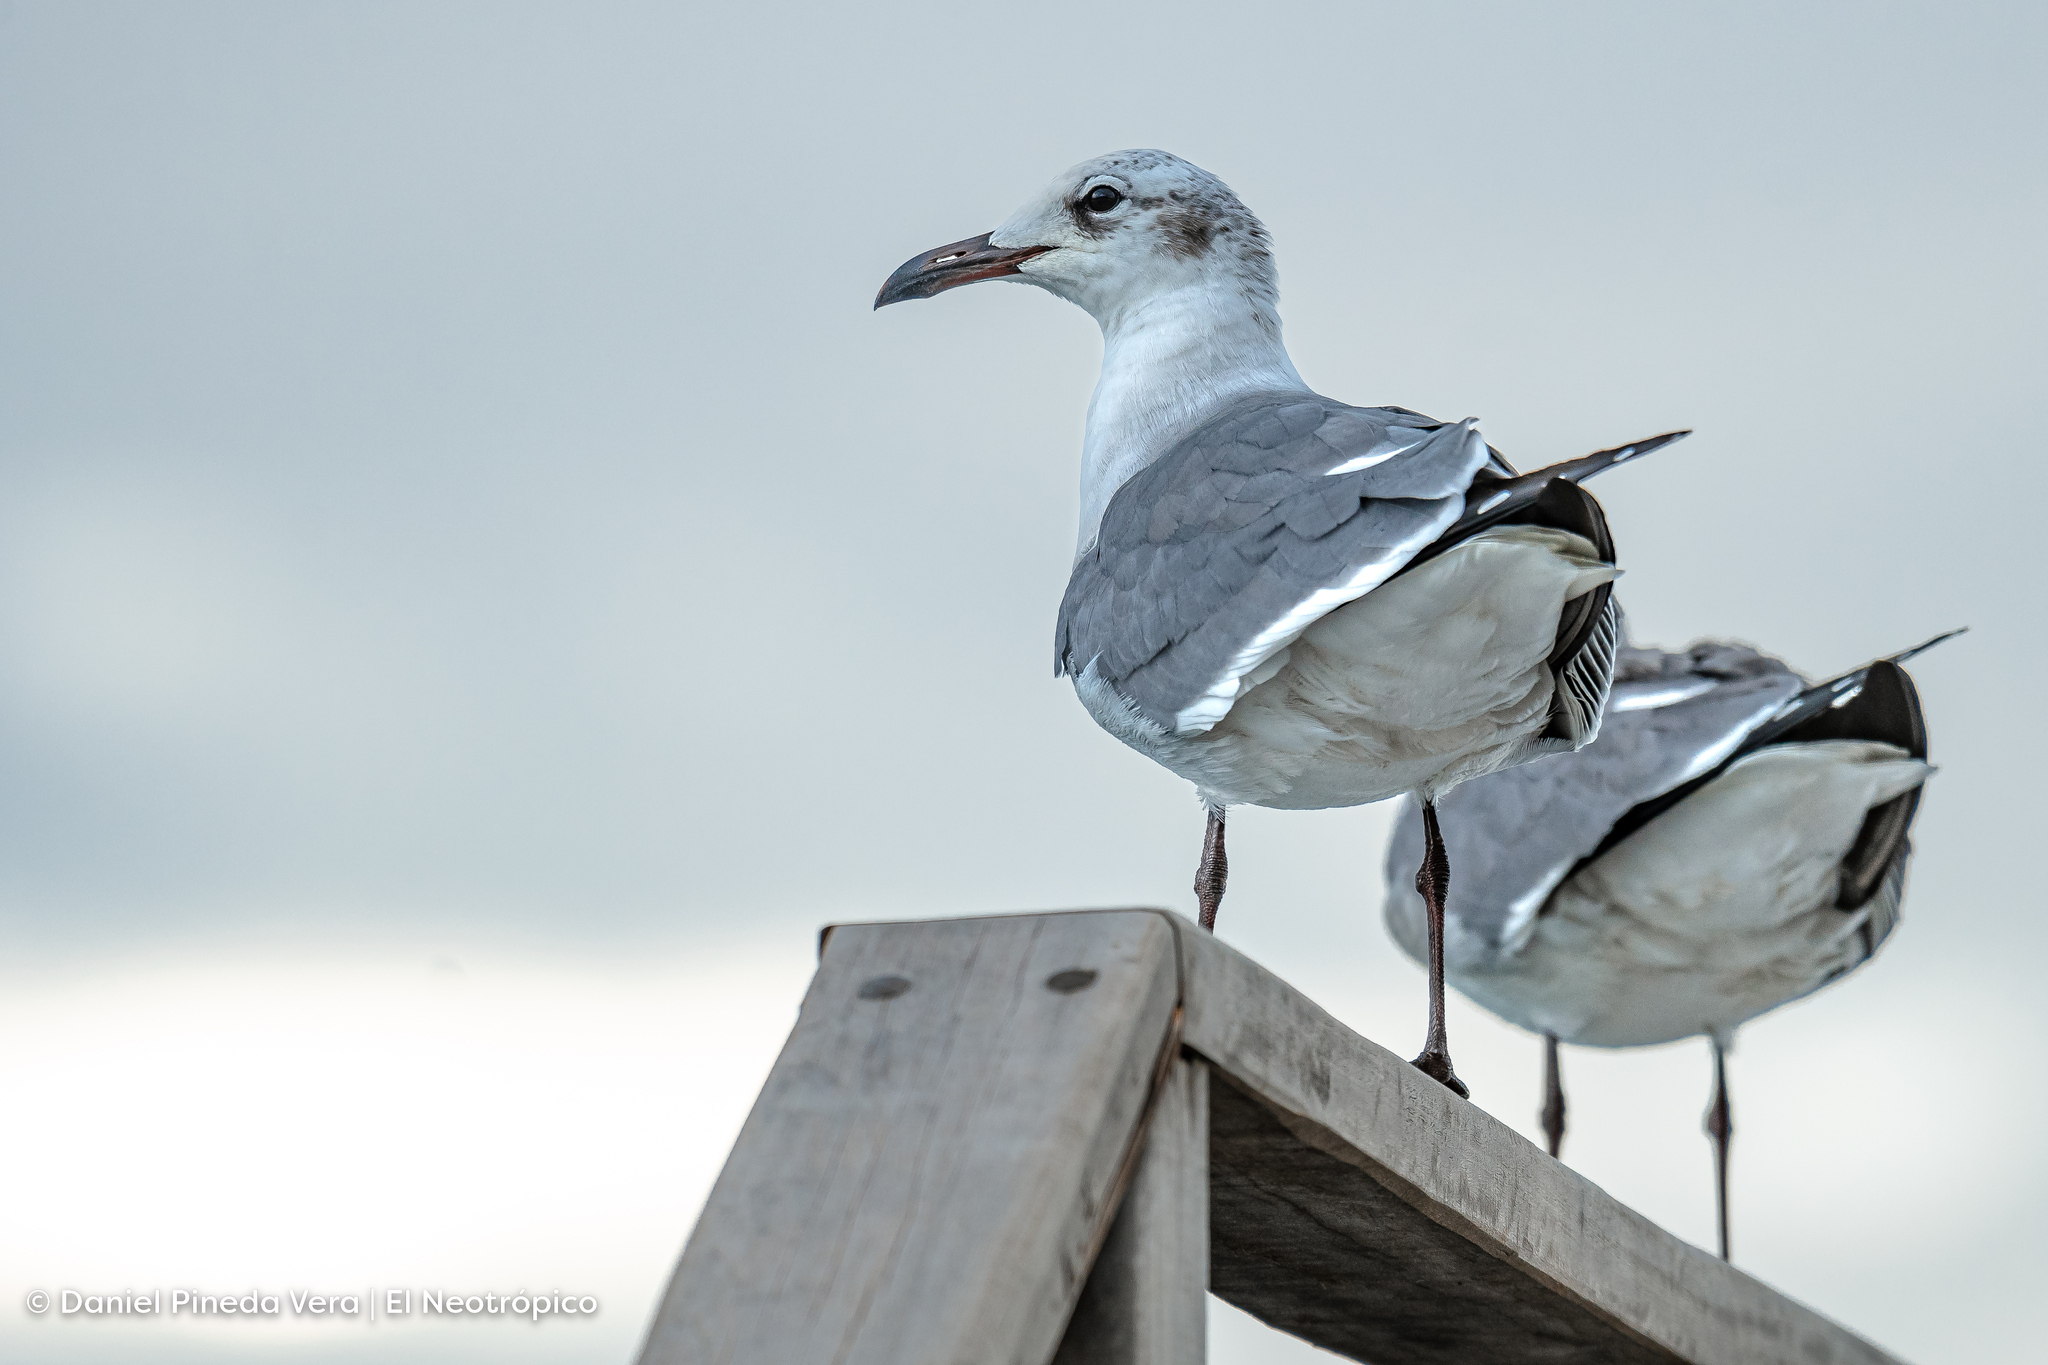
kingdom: Animalia
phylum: Chordata
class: Aves
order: Charadriiformes
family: Laridae
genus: Leucophaeus
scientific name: Leucophaeus atricilla
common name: Laughing gull
